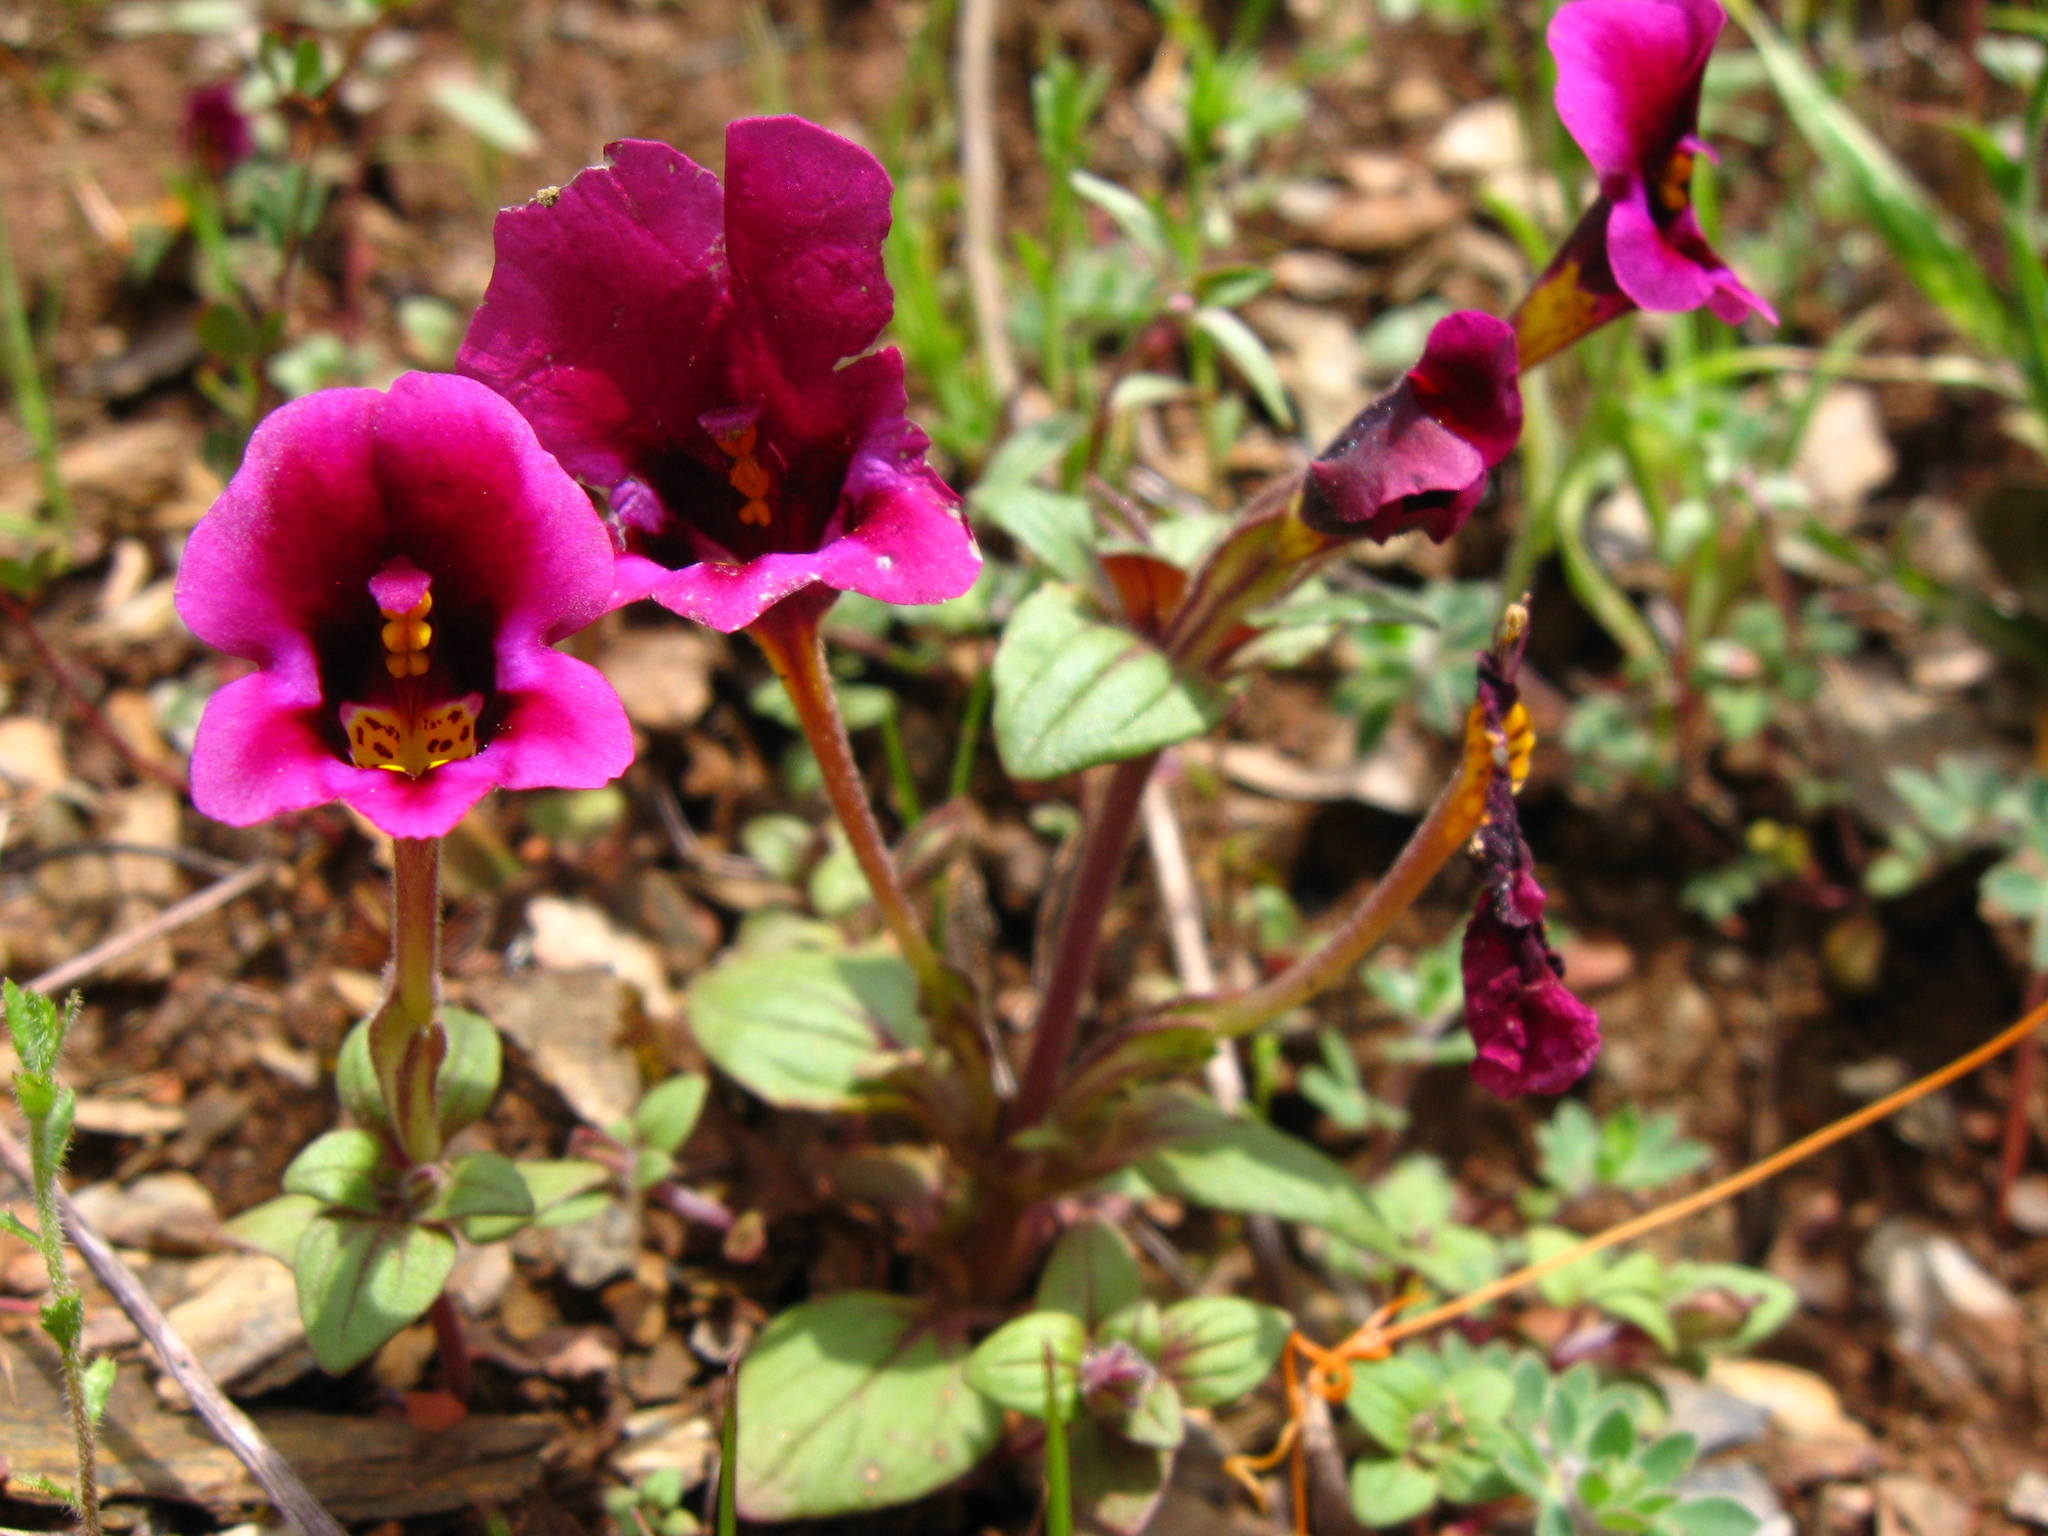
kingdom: Plantae
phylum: Tracheophyta
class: Magnoliopsida
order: Lamiales
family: Phrymaceae
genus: Diplacus
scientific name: Diplacus kelloggii
